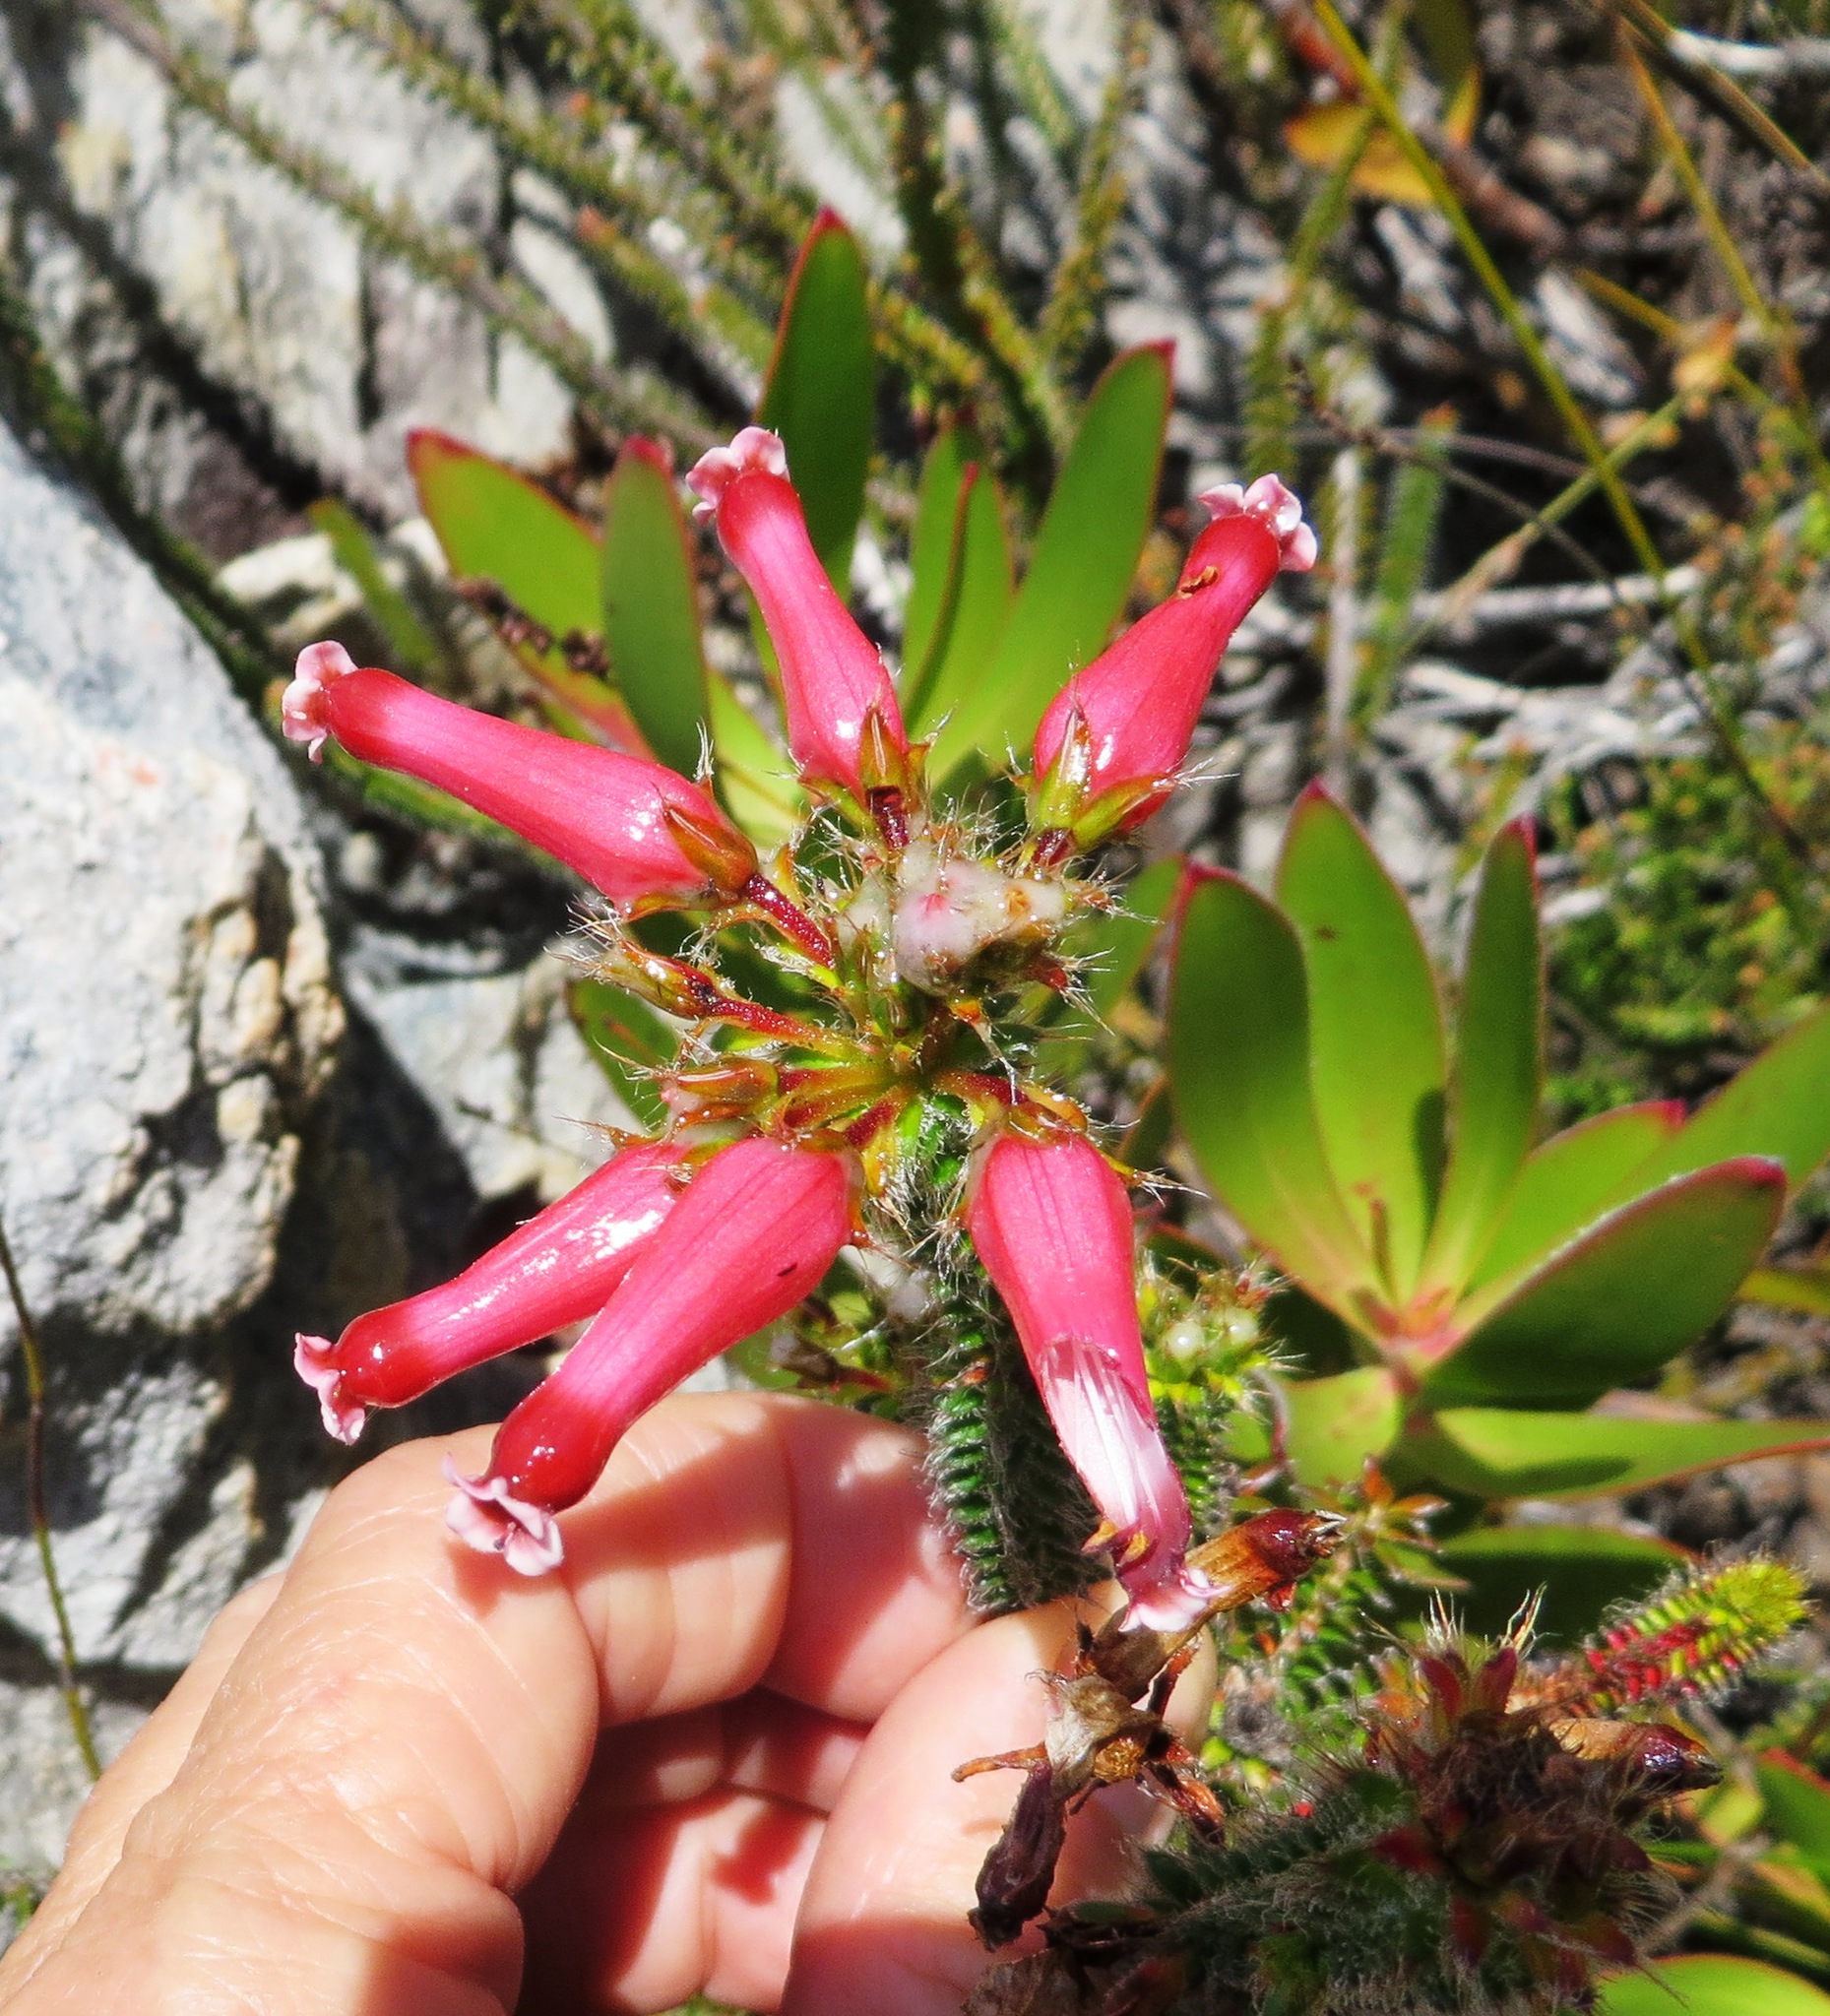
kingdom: Plantae
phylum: Tracheophyta
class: Magnoliopsida
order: Ericales
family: Ericaceae
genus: Erica
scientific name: Erica retorta
